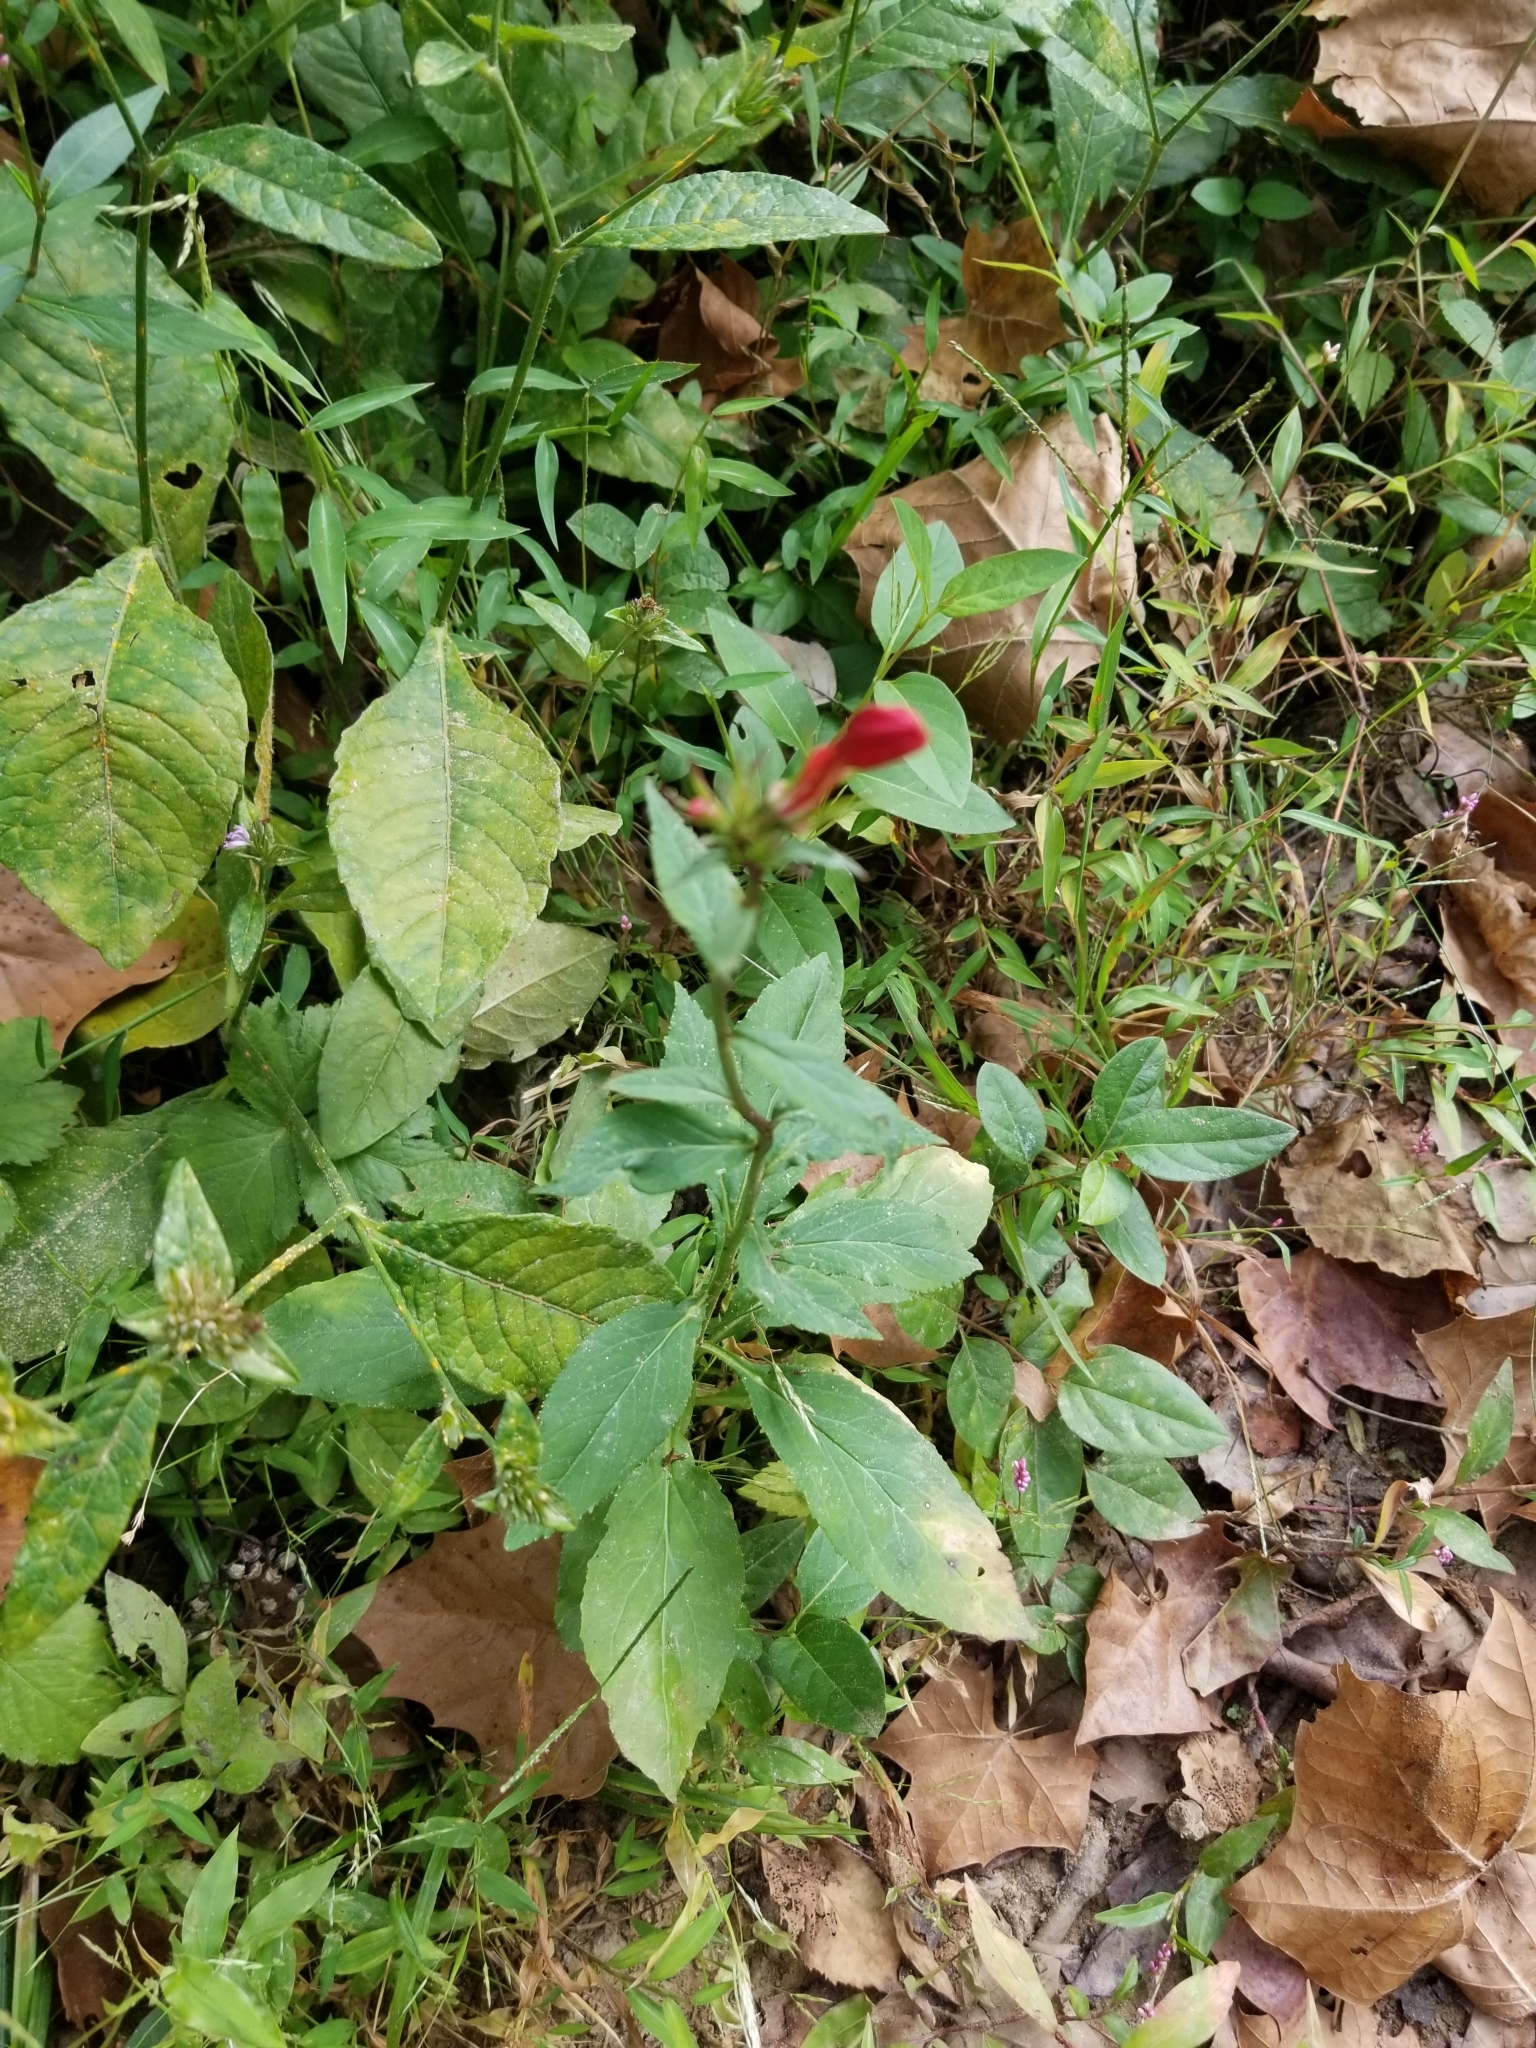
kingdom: Plantae
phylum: Tracheophyta
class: Magnoliopsida
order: Asterales
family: Campanulaceae
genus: Lobelia
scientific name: Lobelia cardinalis
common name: Cardinal flower
